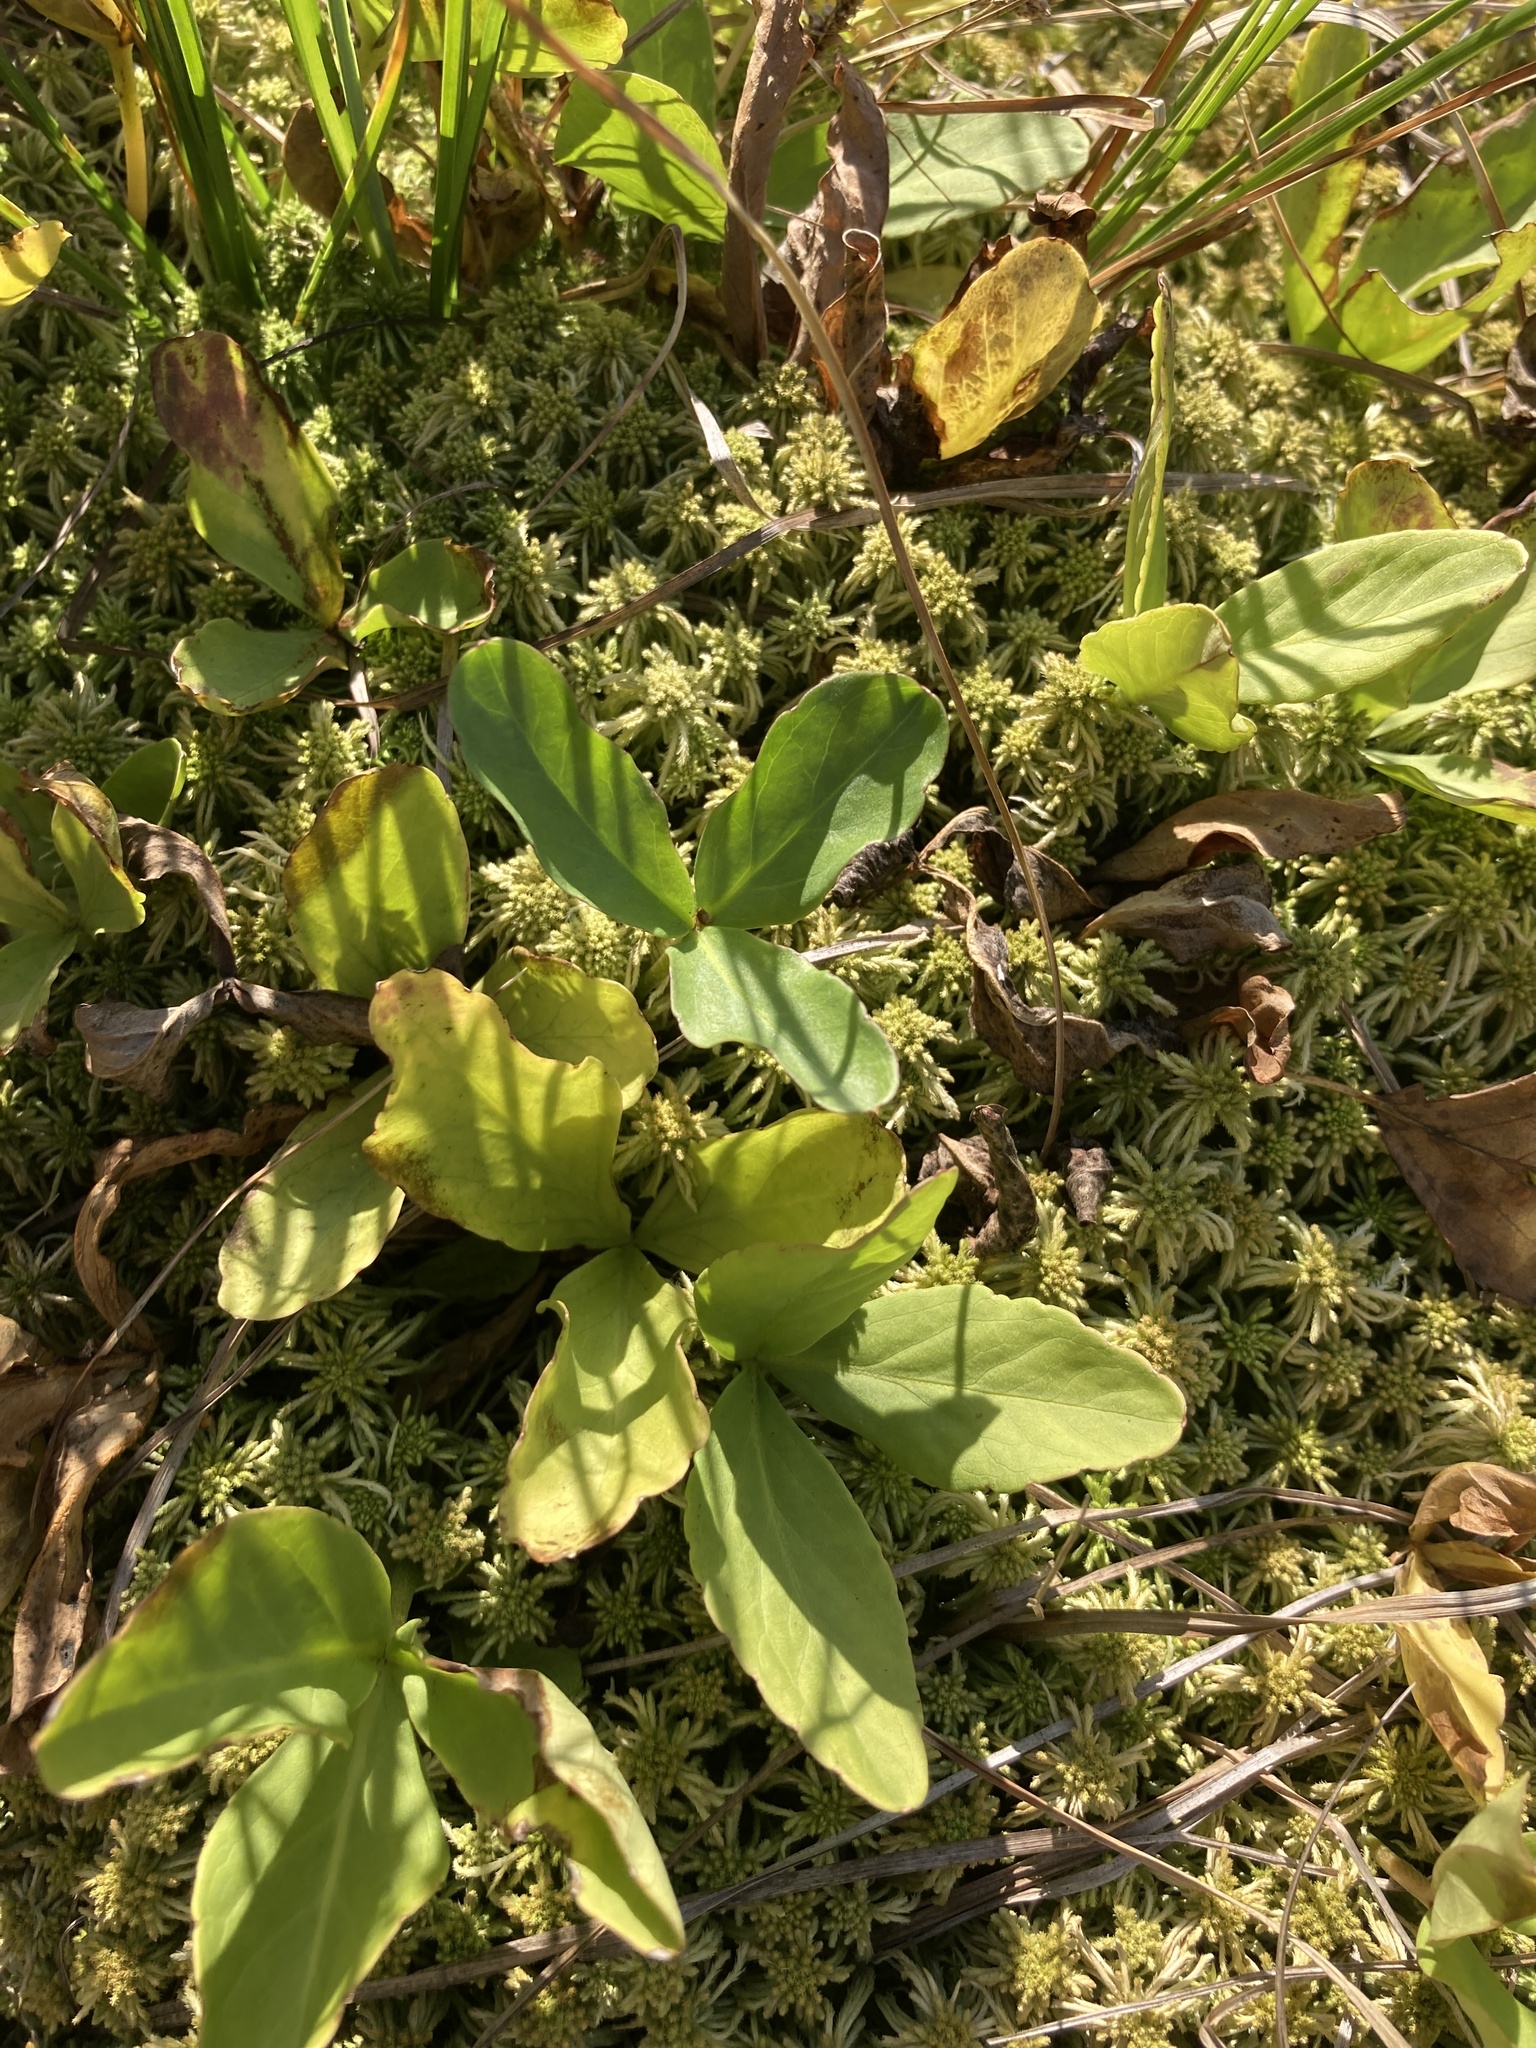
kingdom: Plantae
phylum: Tracheophyta
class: Magnoliopsida
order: Asterales
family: Menyanthaceae
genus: Menyanthes
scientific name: Menyanthes trifoliata
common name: Bogbean
